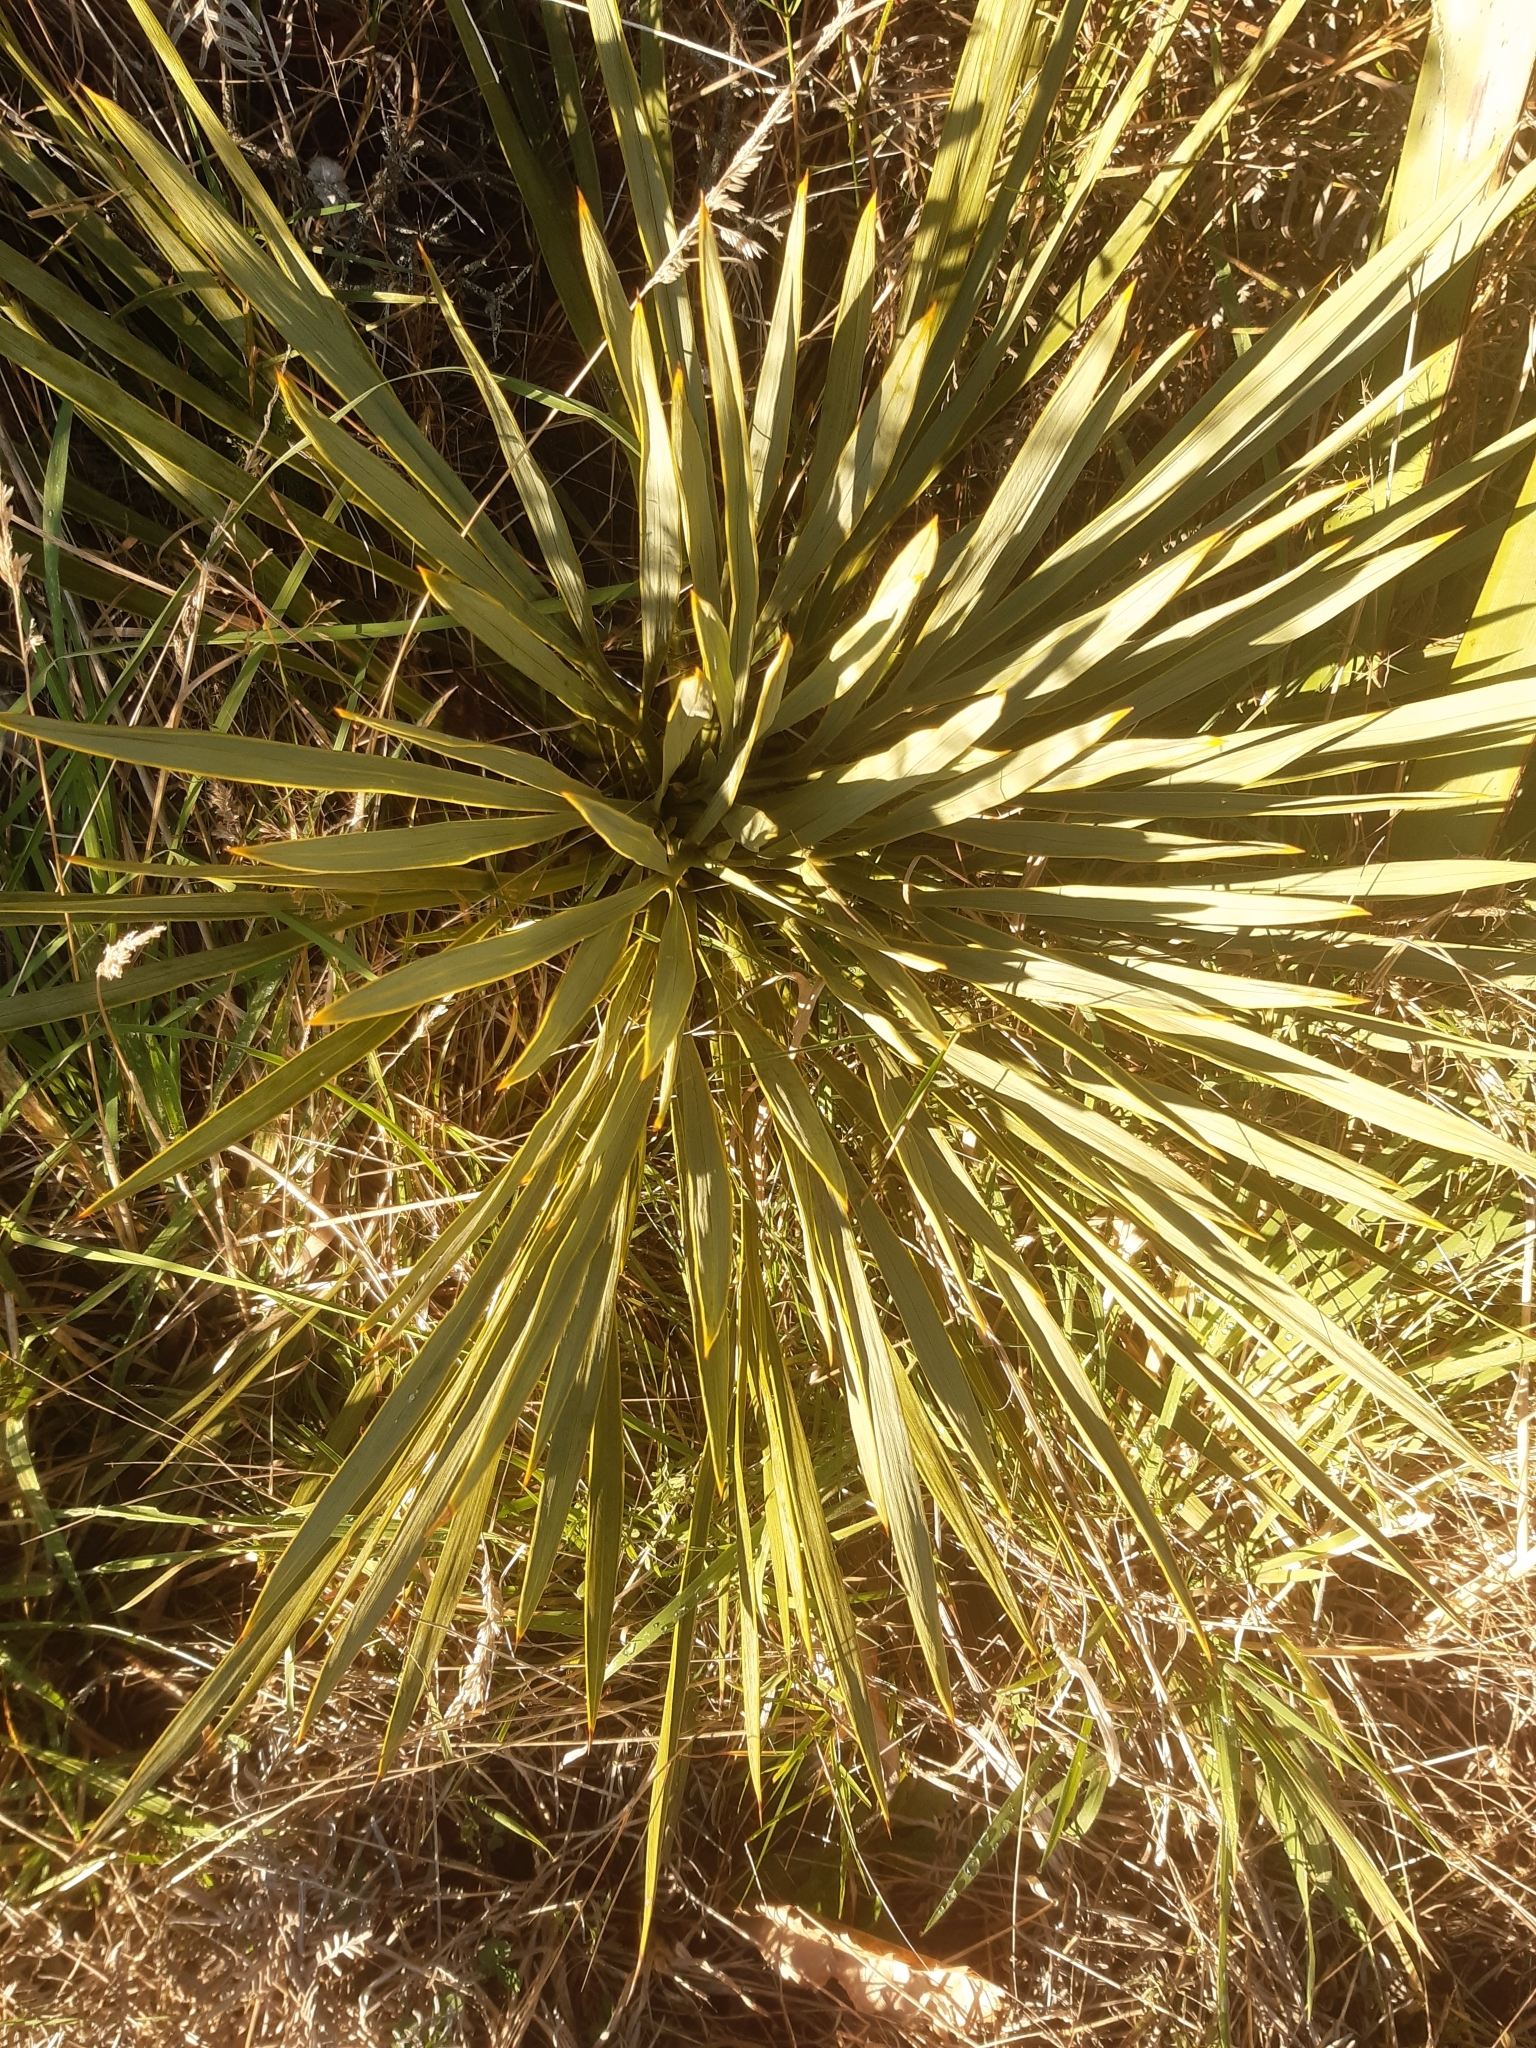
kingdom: Plantae
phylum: Tracheophyta
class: Magnoliopsida
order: Apiales
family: Apiaceae
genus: Aciphylla
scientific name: Aciphylla aurea
